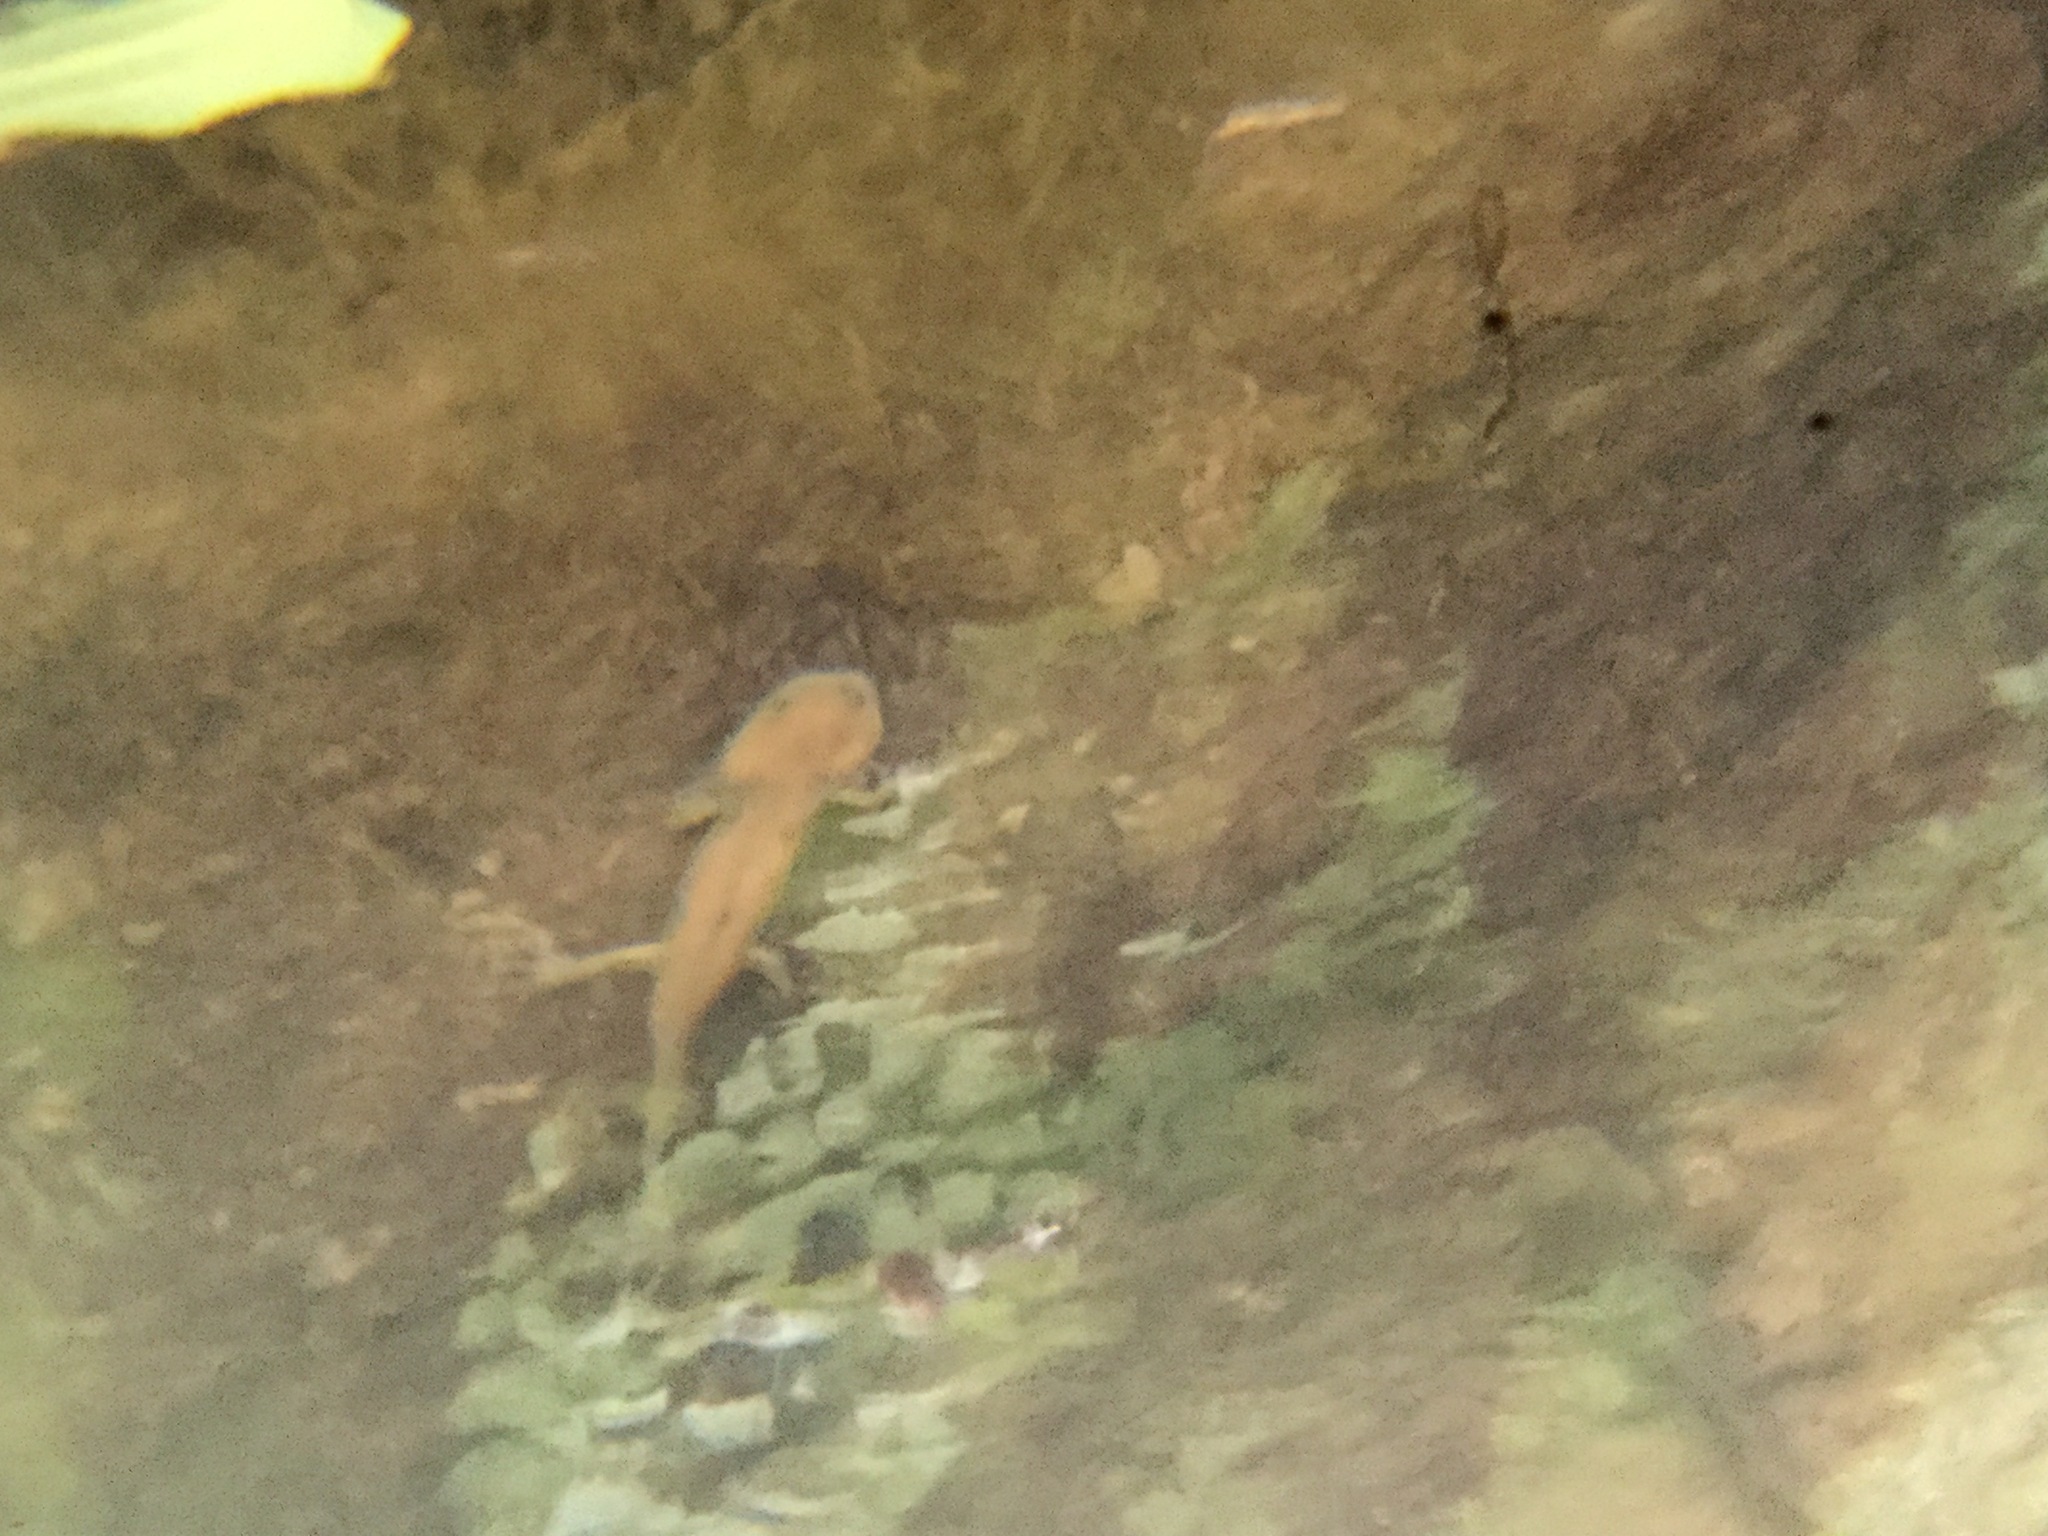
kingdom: Animalia
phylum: Chordata
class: Amphibia
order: Caudata
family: Ambystomatidae
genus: Ambystoma
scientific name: Ambystoma velasci
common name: Plateau tiger salamander
